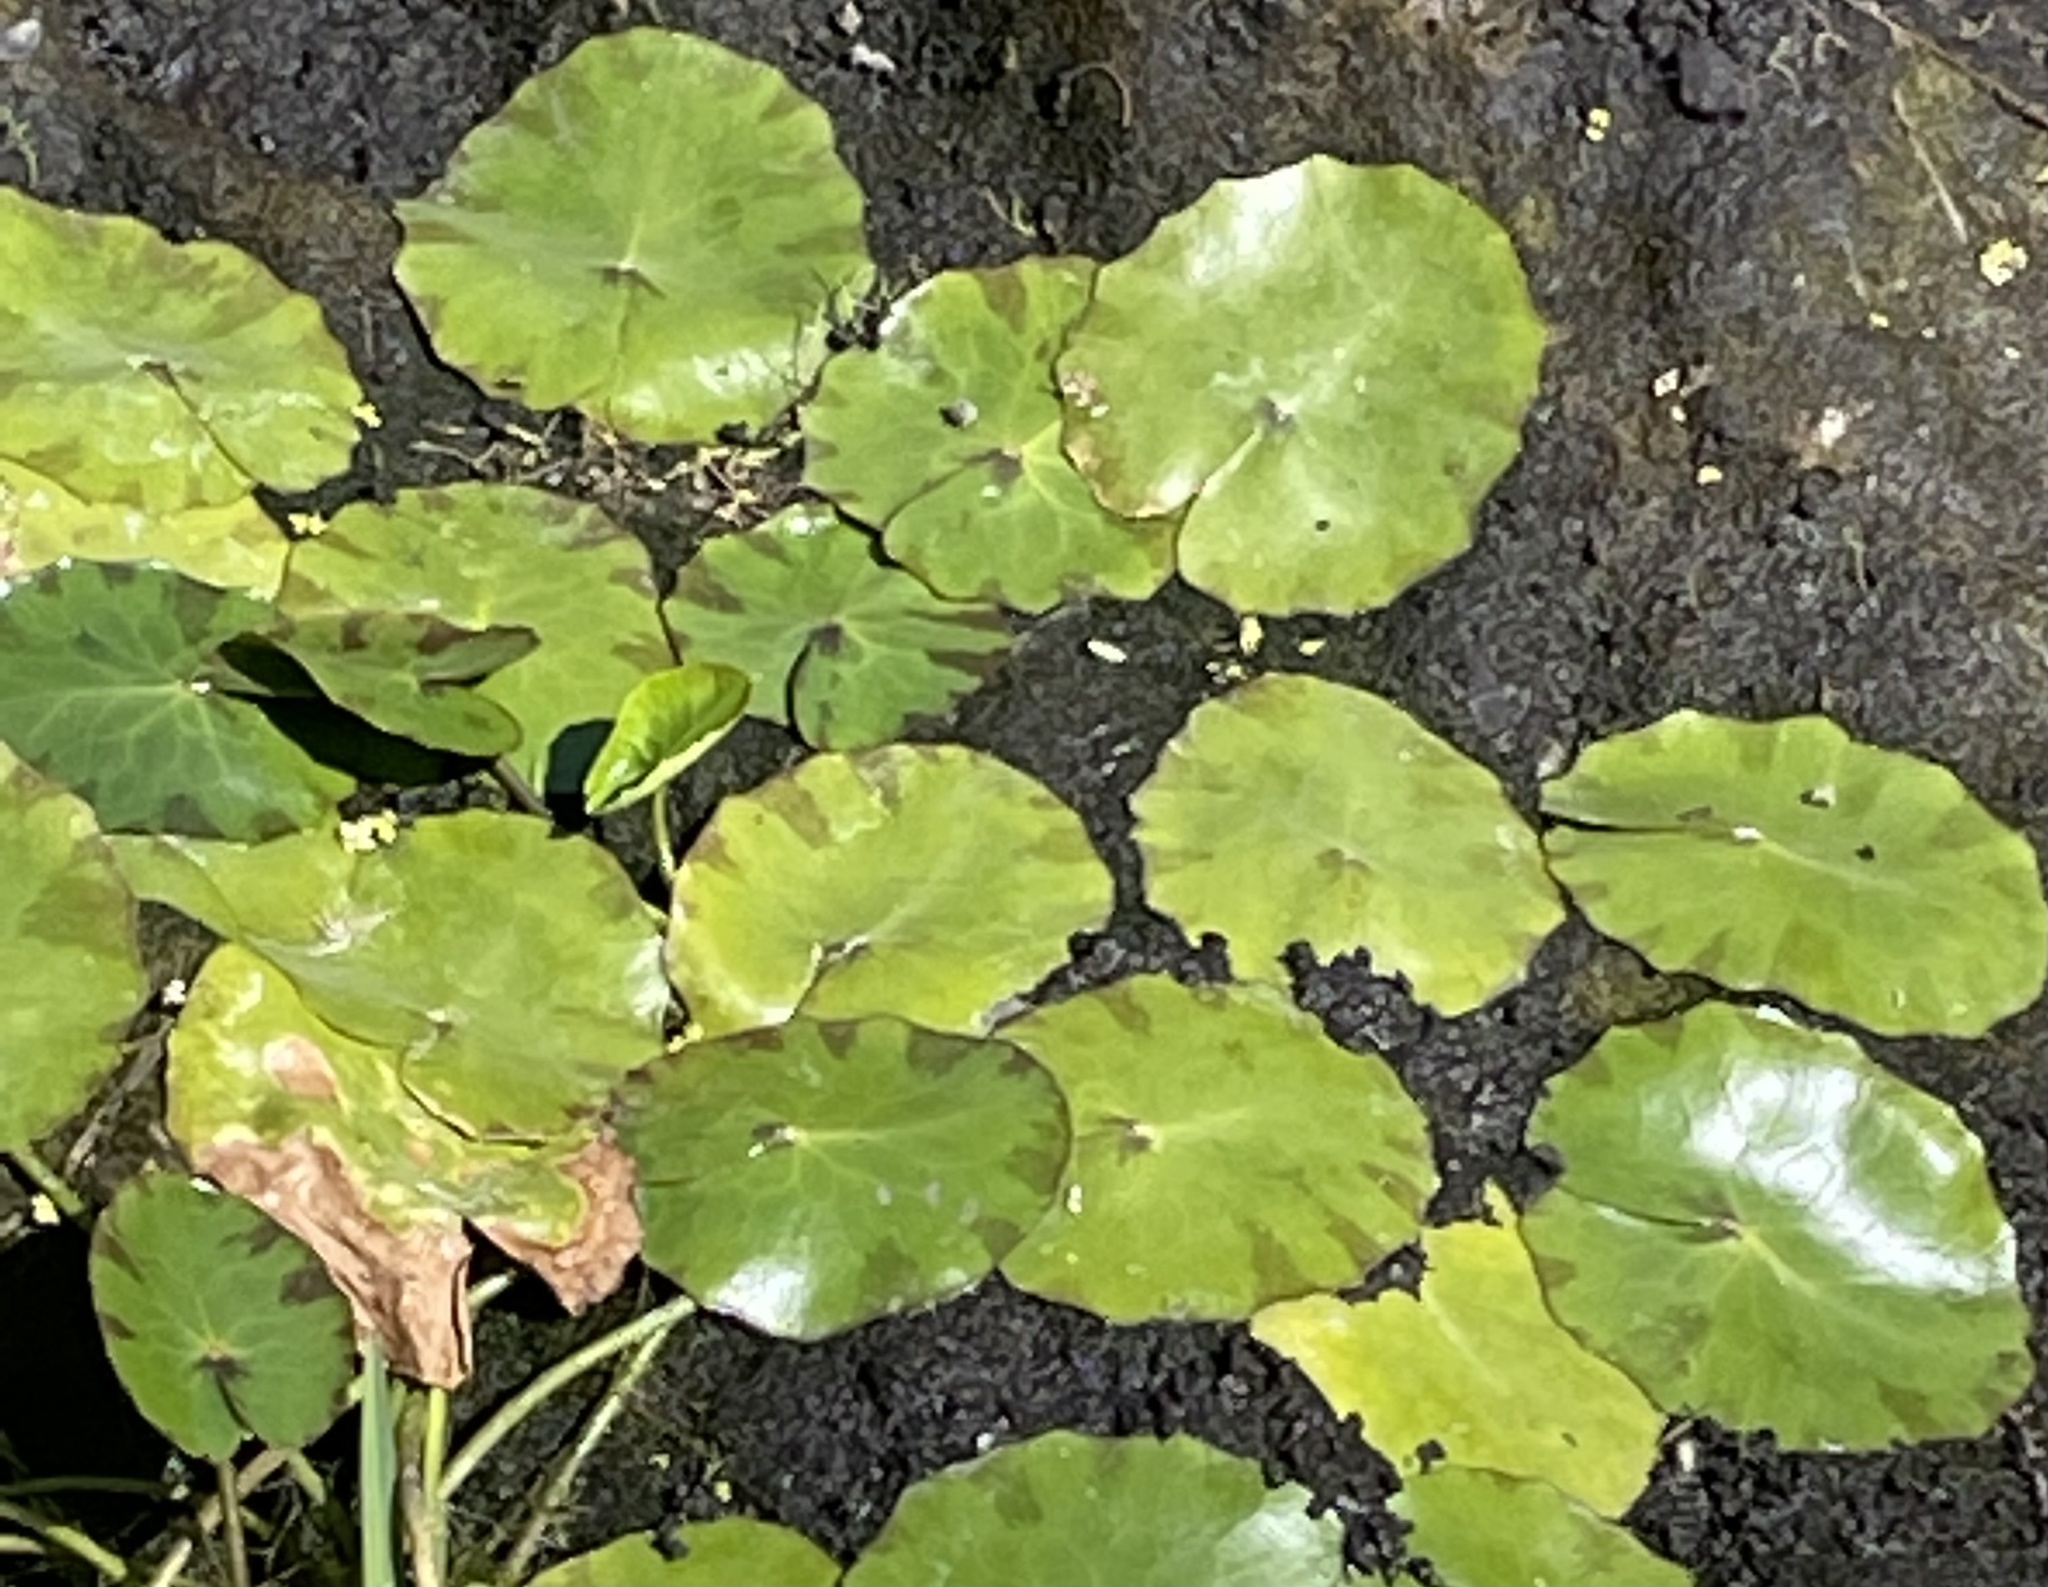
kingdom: Plantae
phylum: Tracheophyta
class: Magnoliopsida
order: Asterales
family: Menyanthaceae
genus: Nymphoides
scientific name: Nymphoides peltata
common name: Fringed water-lily
